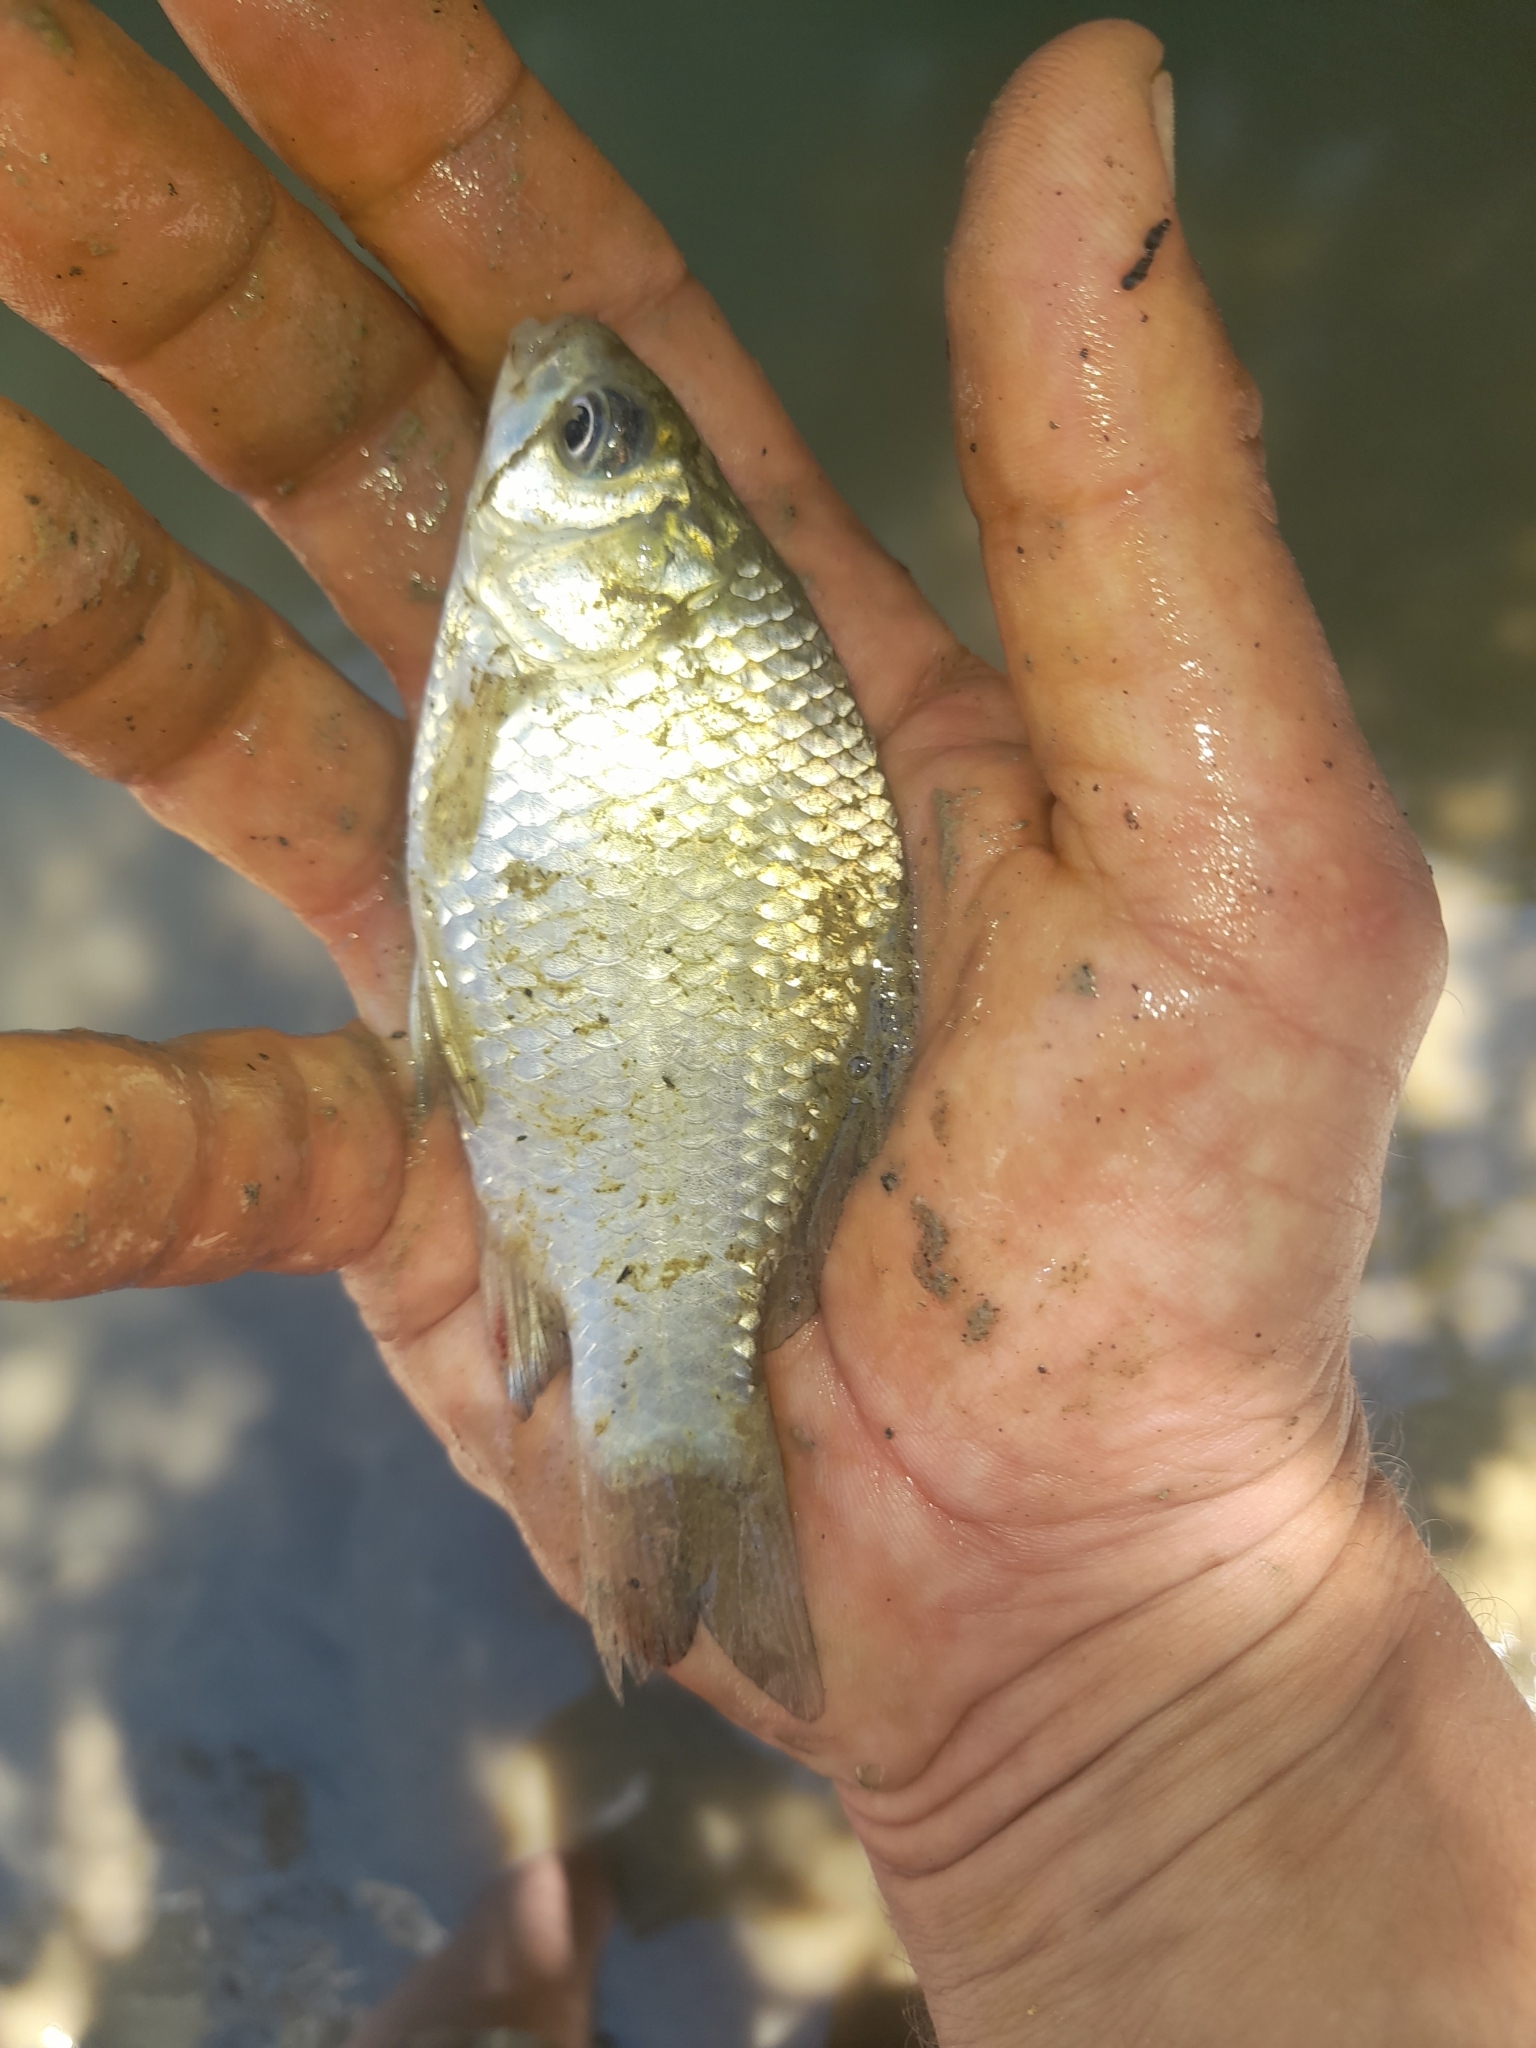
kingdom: Animalia
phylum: Chordata
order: Cypriniformes
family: Cyprinidae
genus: Carassius
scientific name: Carassius gibelio
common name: Prussian carp
